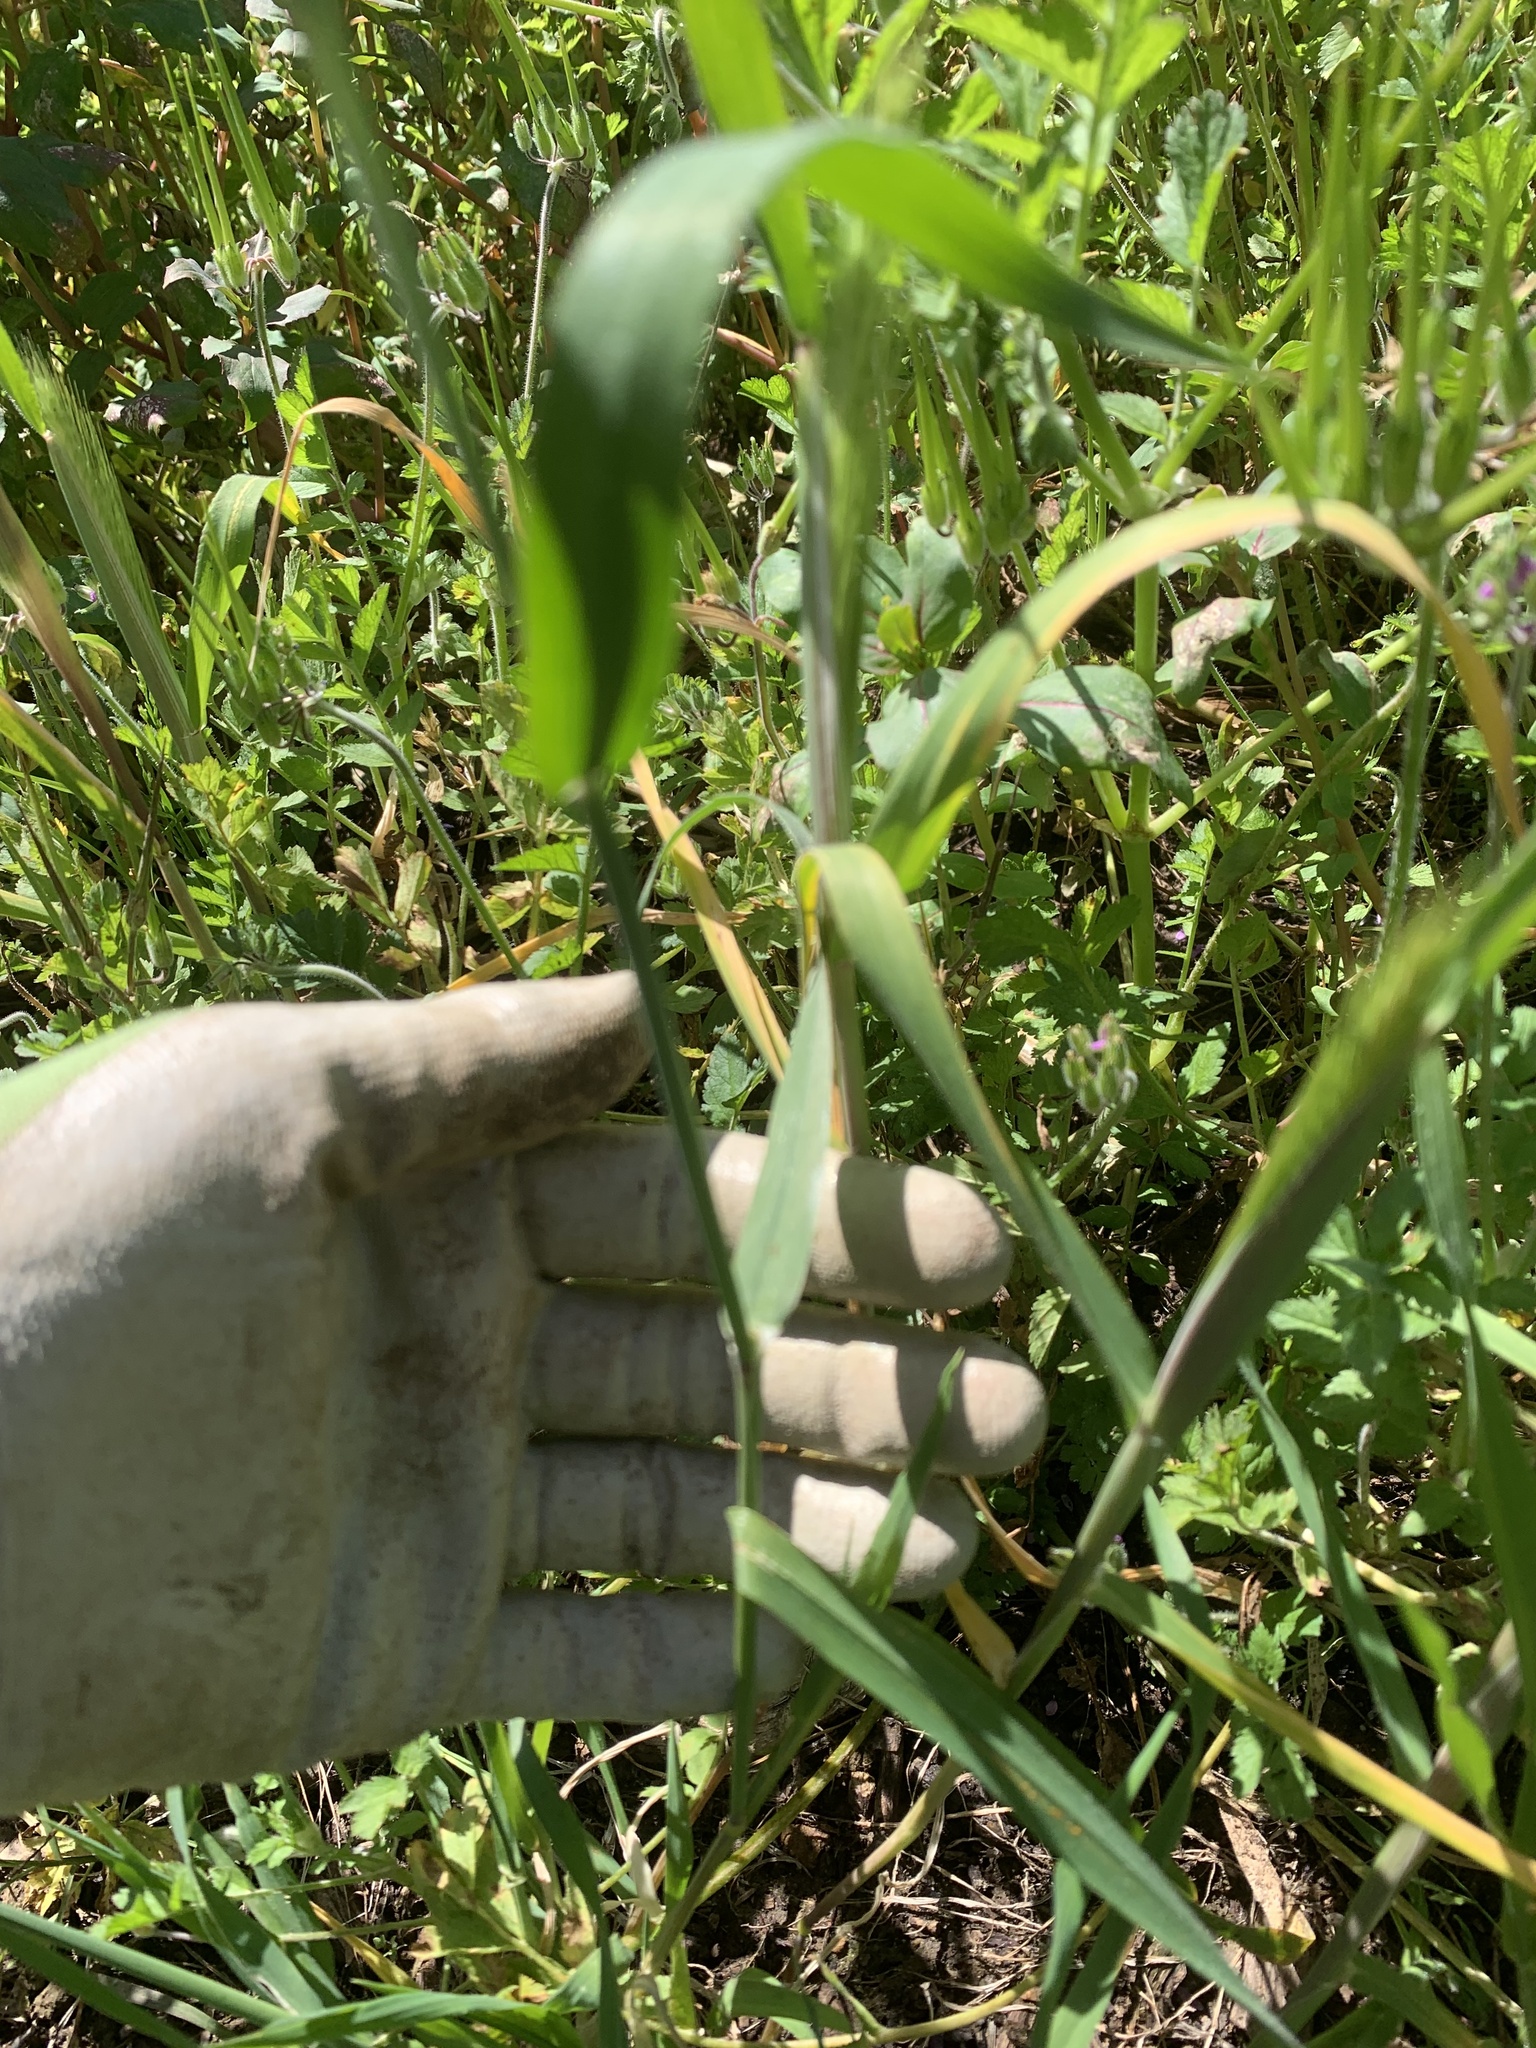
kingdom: Plantae
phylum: Tracheophyta
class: Liliopsida
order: Poales
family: Poaceae
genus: Hordeum
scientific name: Hordeum murinum
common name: Wall barley
